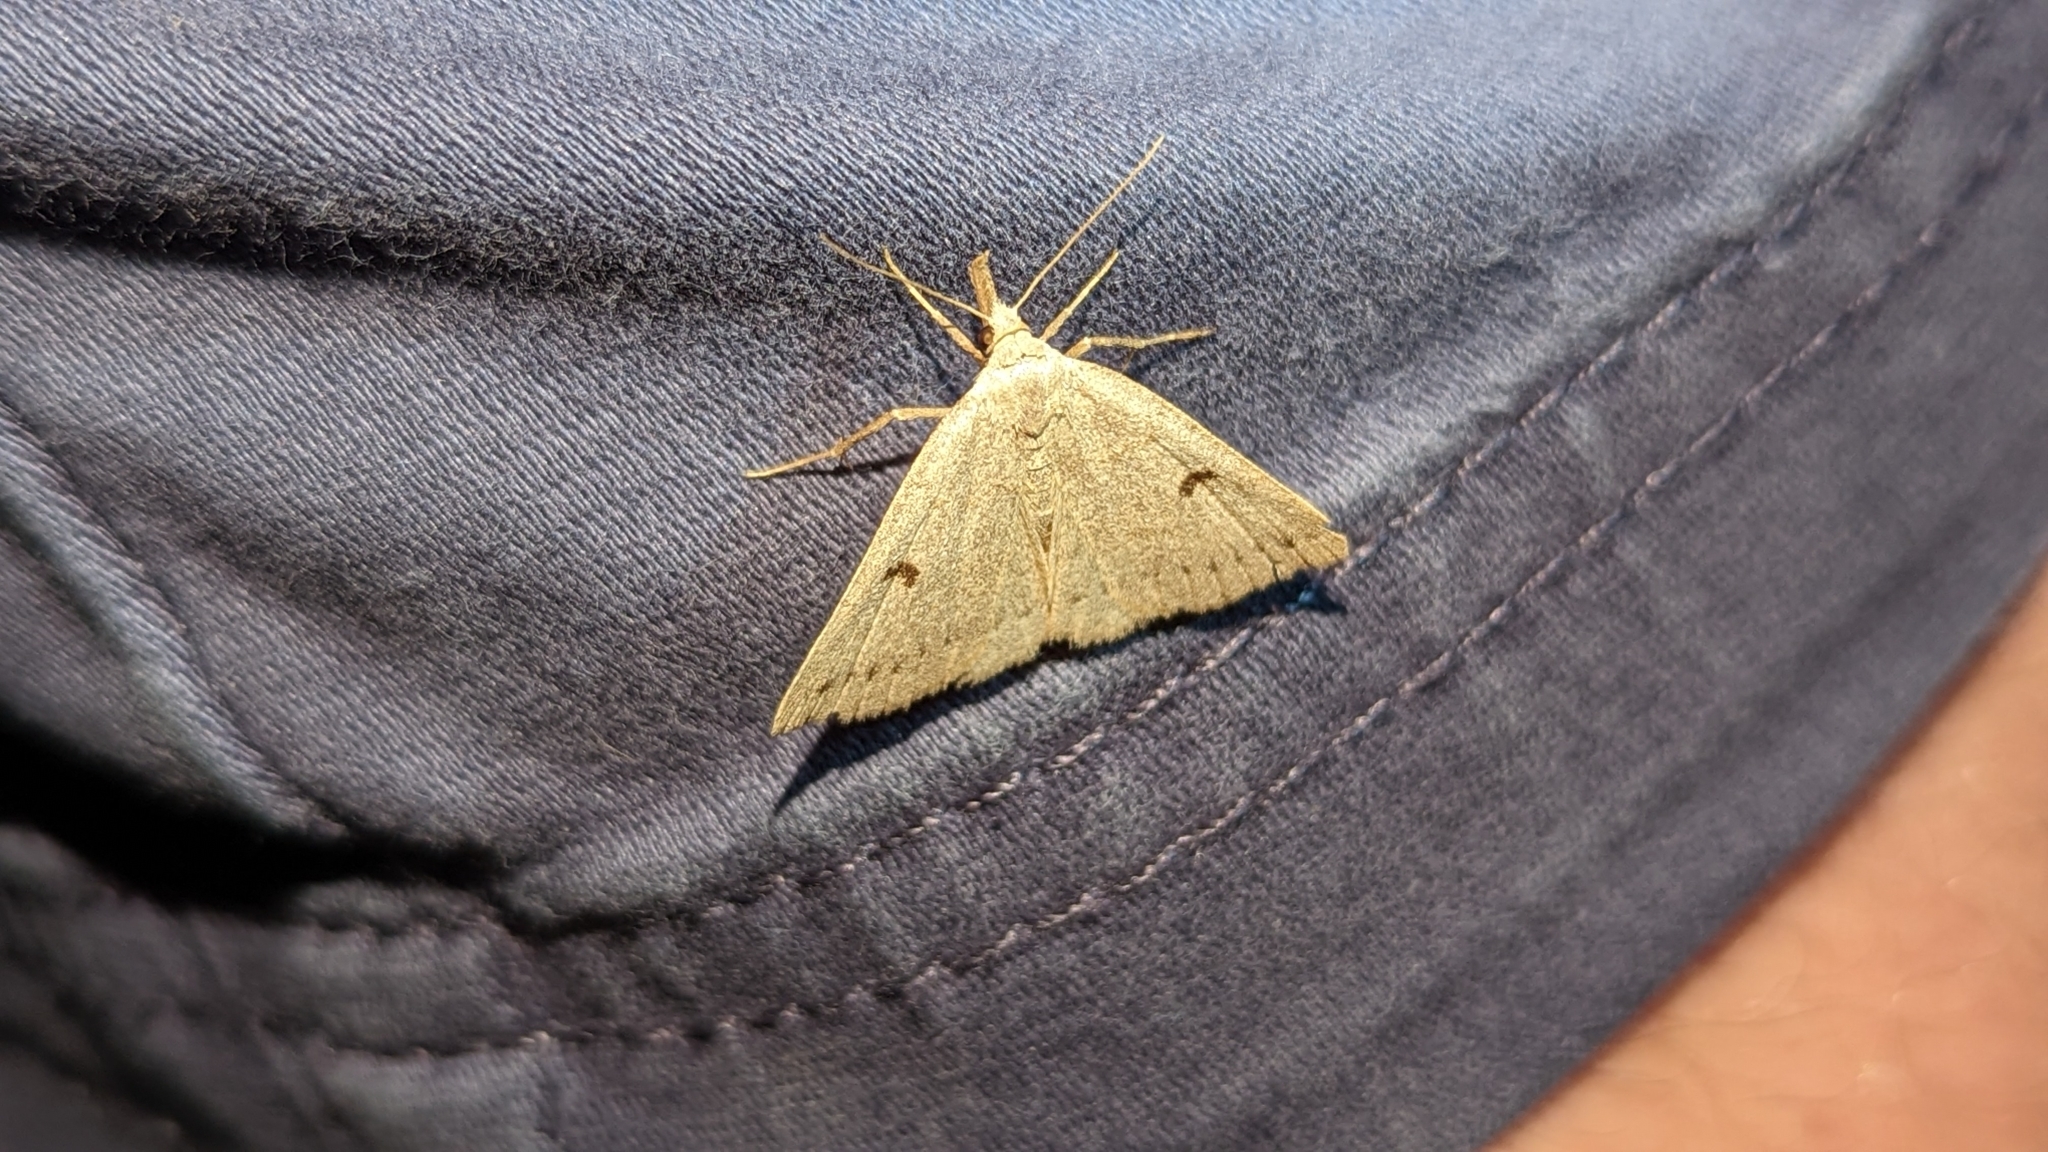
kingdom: Animalia
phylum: Arthropoda
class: Insecta
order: Lepidoptera
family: Erebidae
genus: Macrochilo
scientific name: Macrochilo morbidalis
